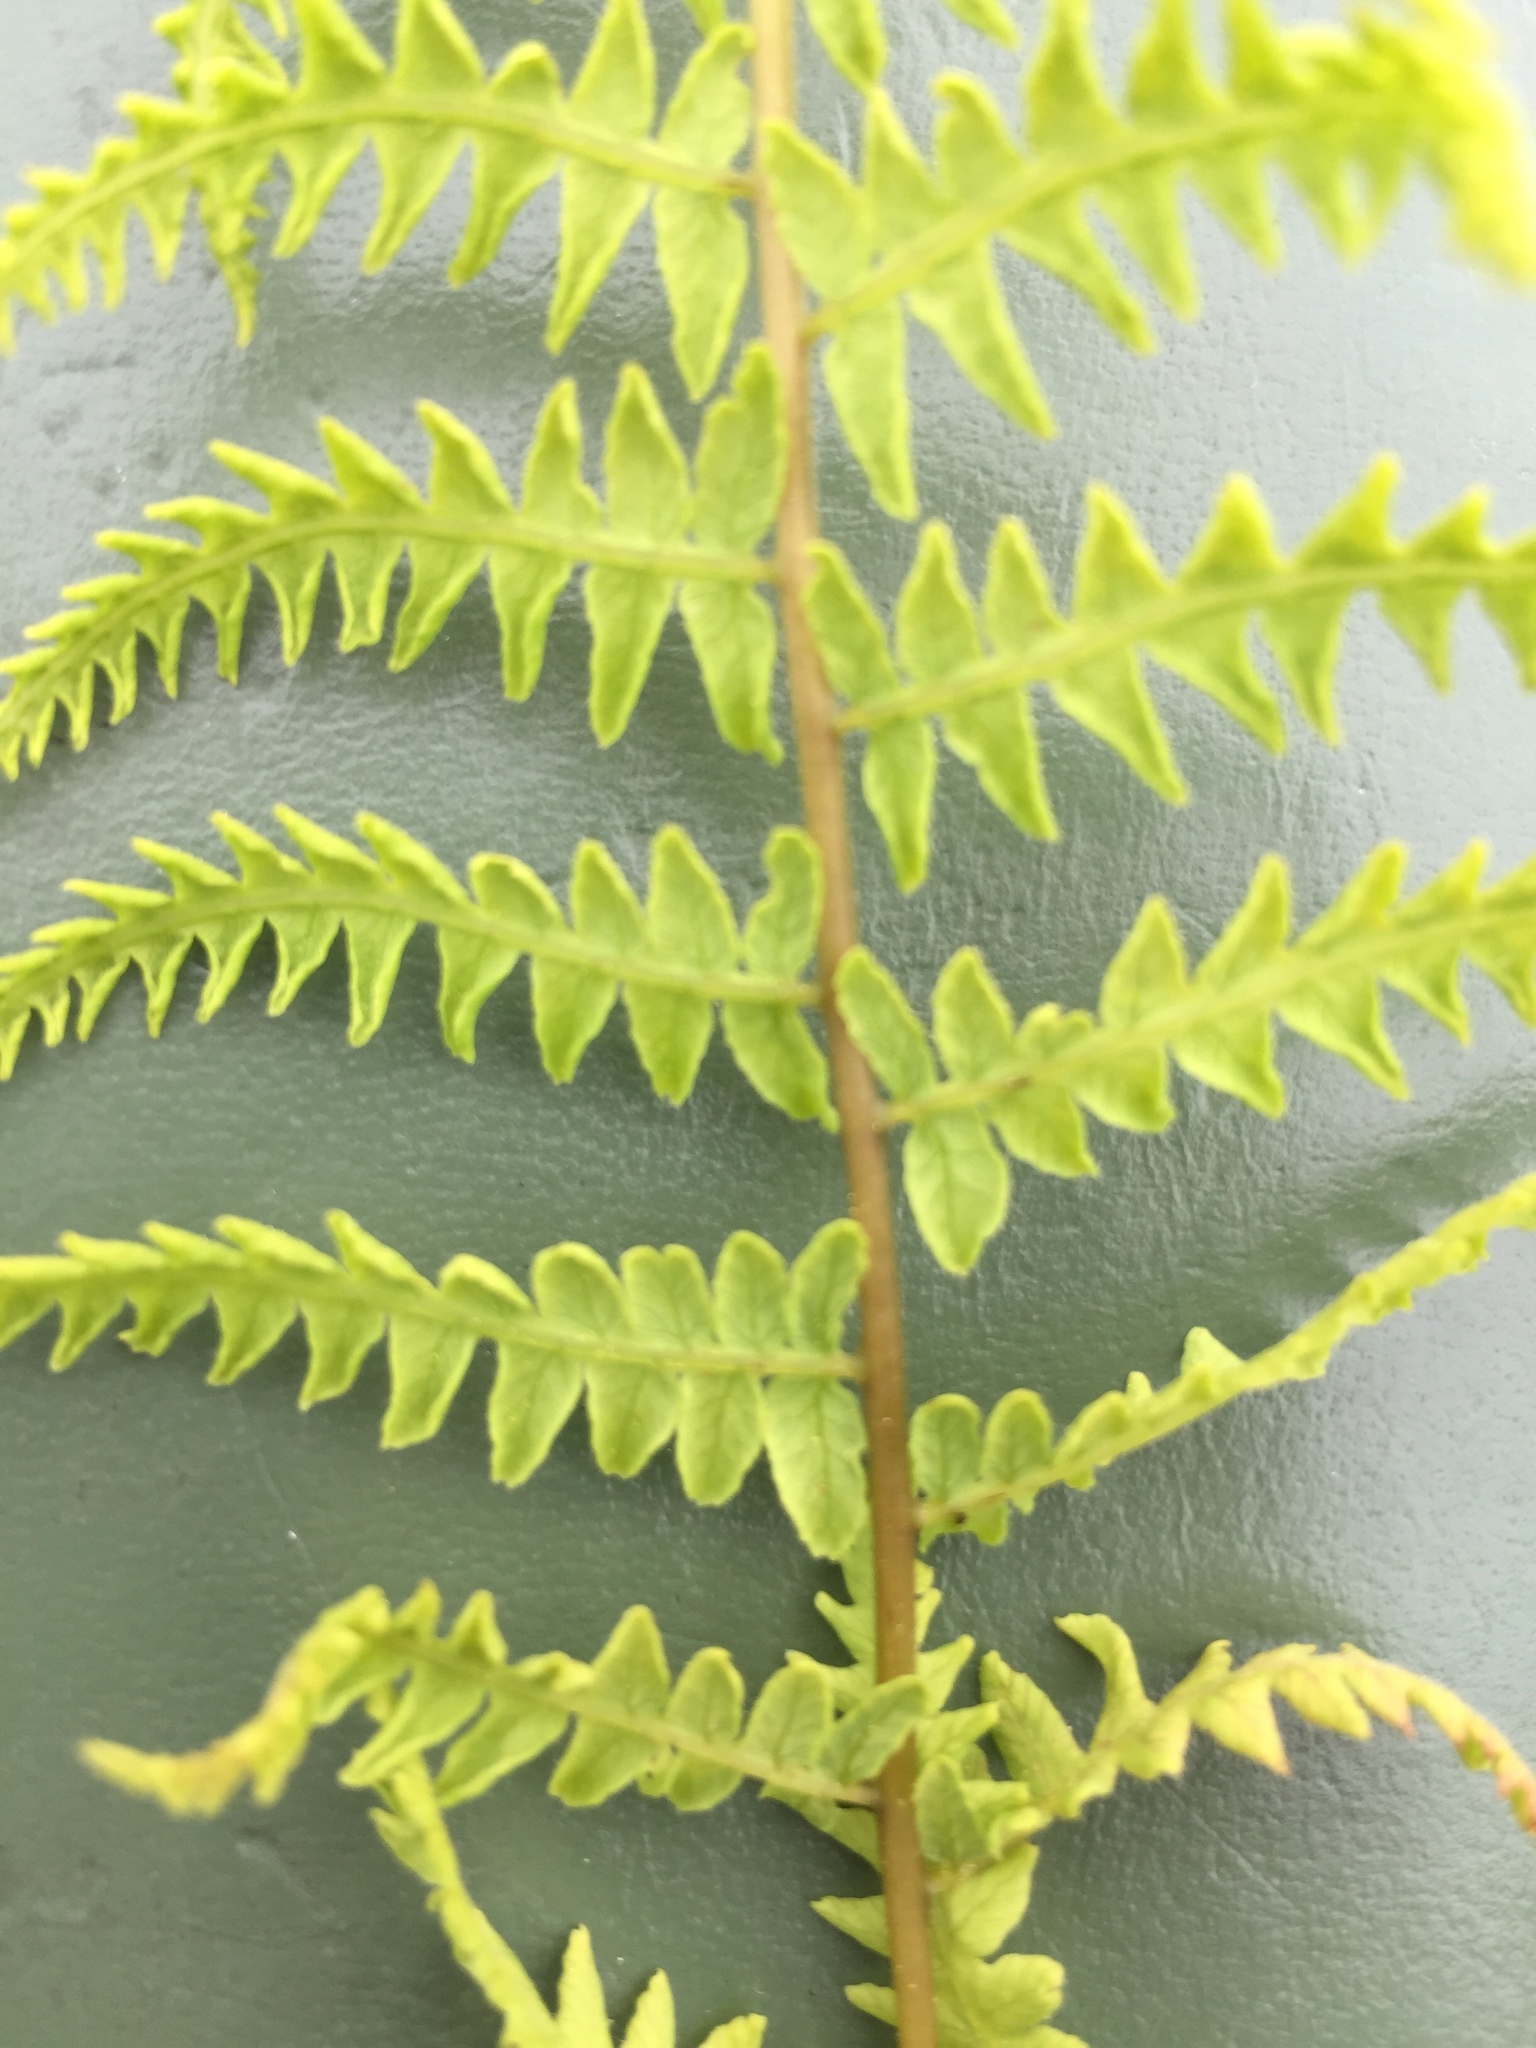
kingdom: Plantae
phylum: Tracheophyta
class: Polypodiopsida
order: Polypodiales
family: Thelypteridaceae
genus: Thelypteris
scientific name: Thelypteris palustris
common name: Marsh fern
